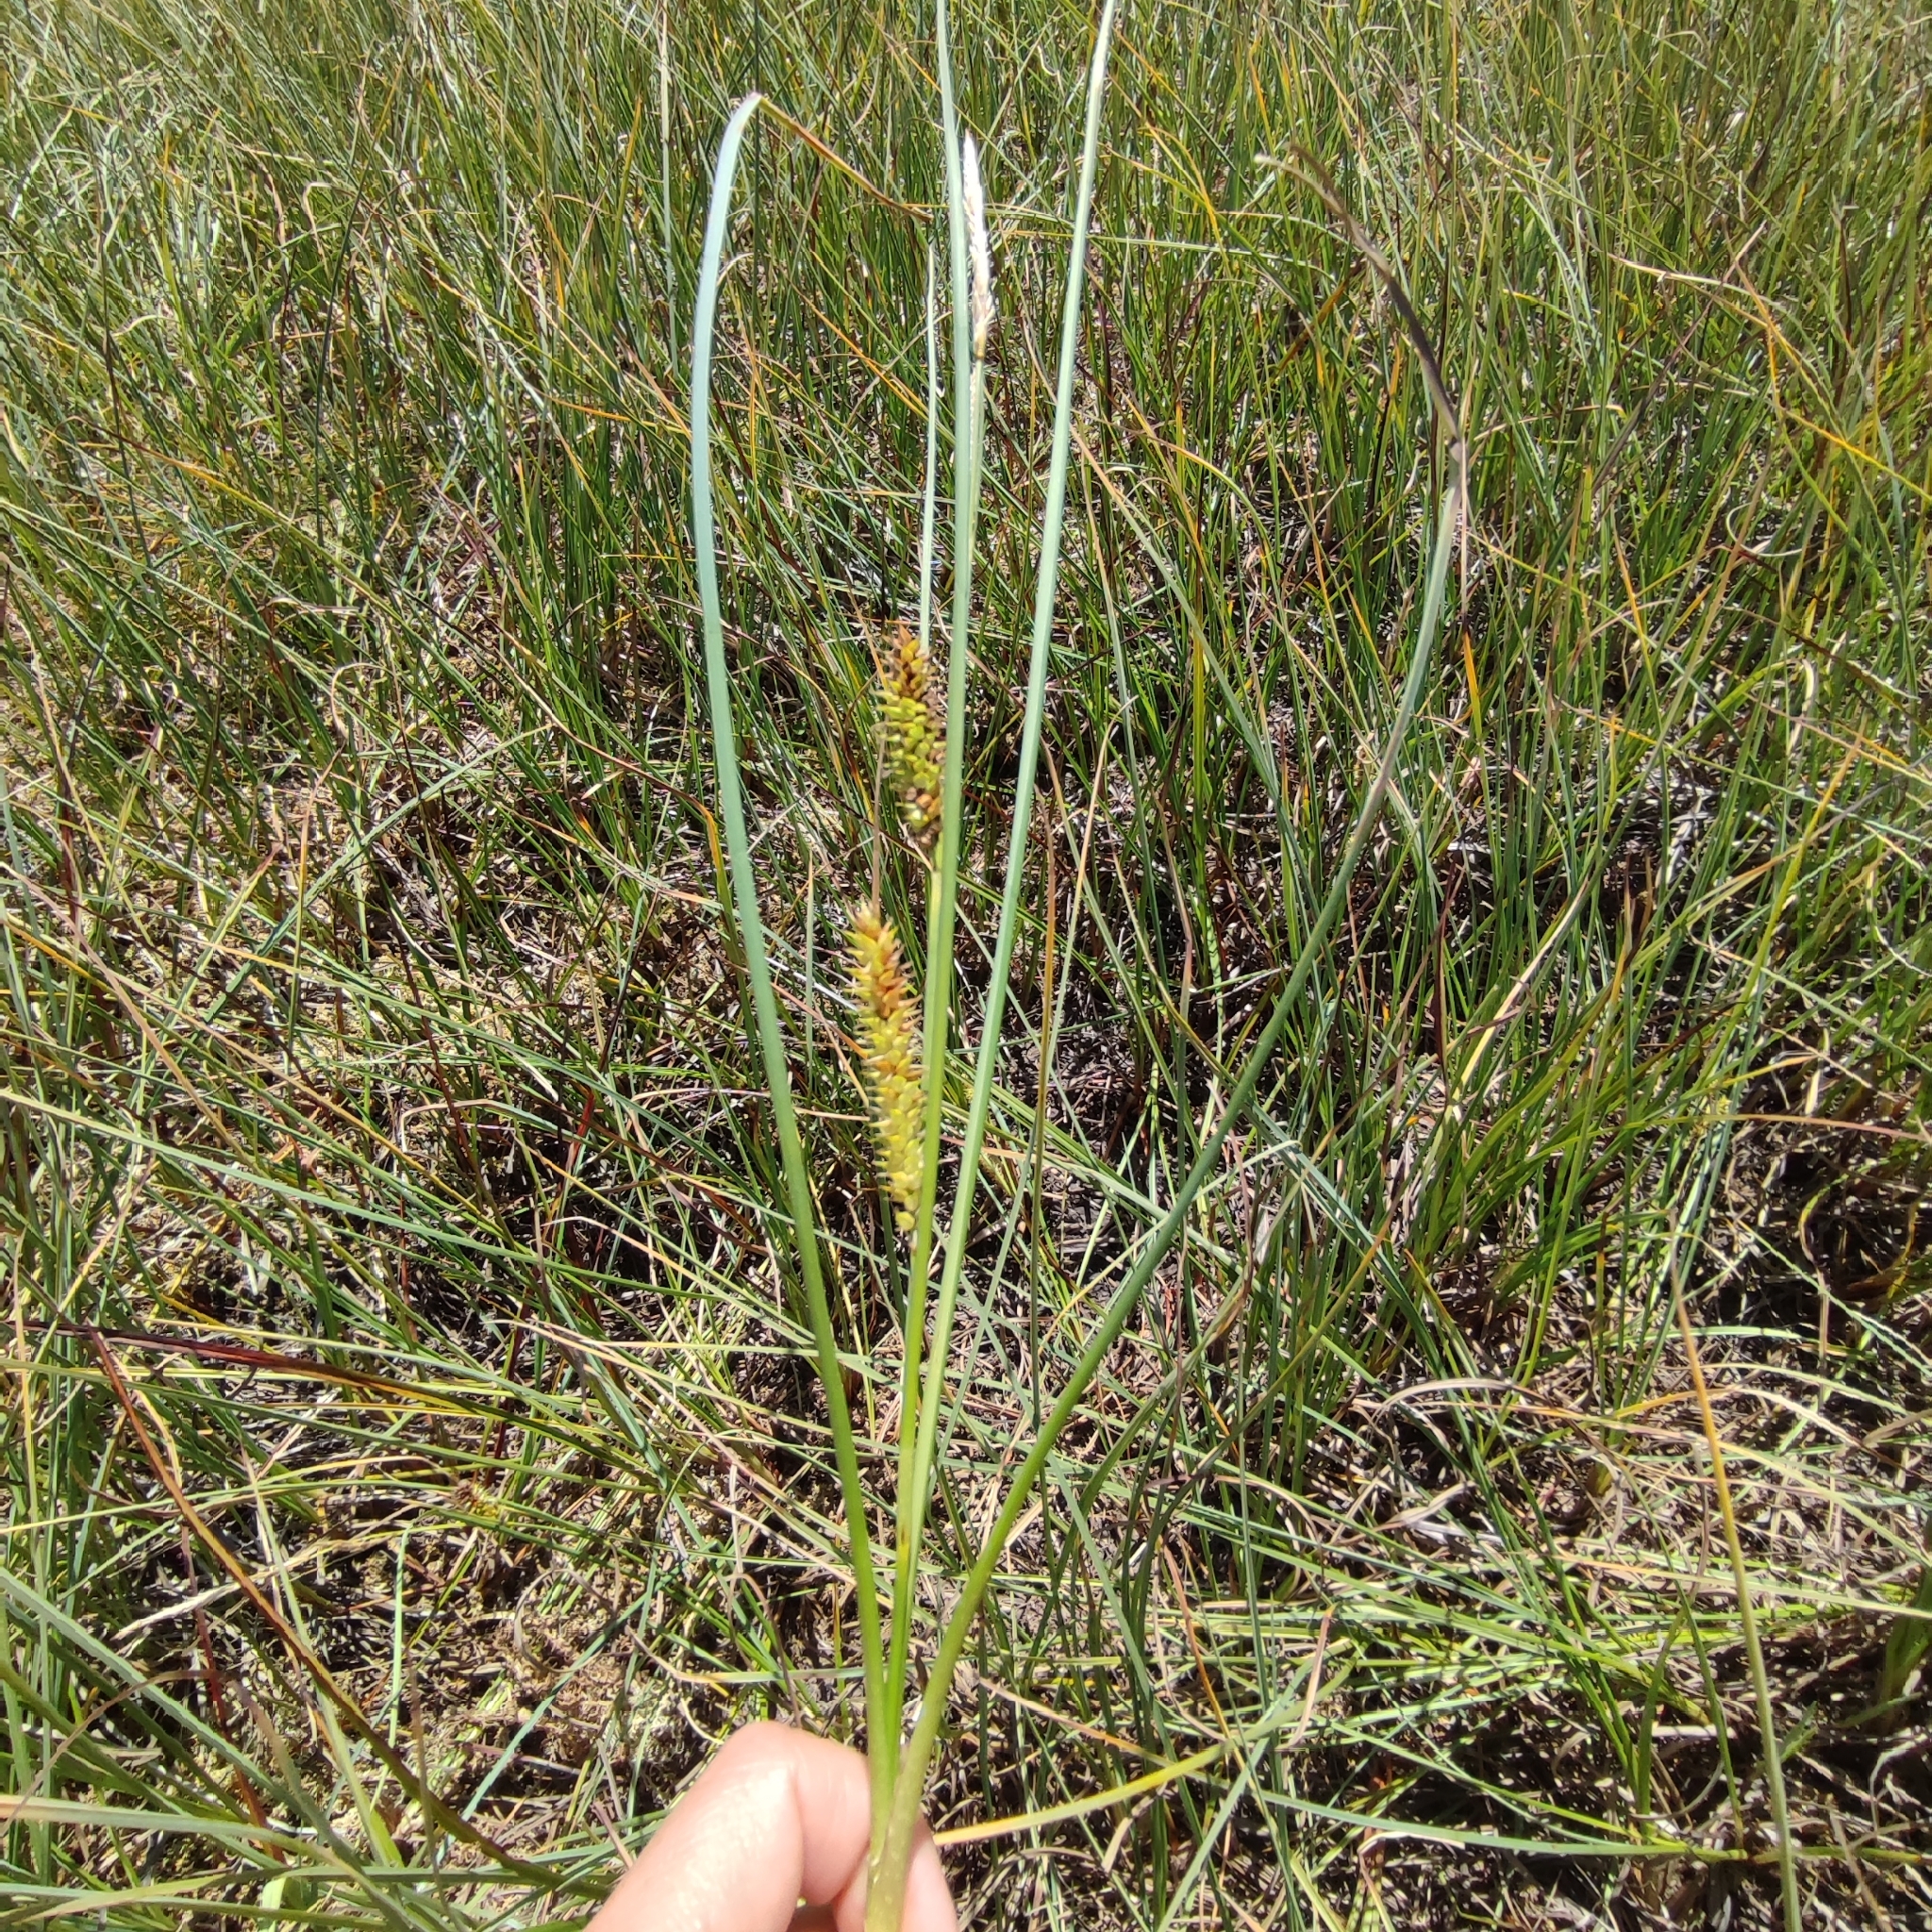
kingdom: Plantae
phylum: Tracheophyta
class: Liliopsida
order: Poales
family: Cyperaceae
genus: Carex
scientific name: Carex rostrata
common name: Bottle sedge
